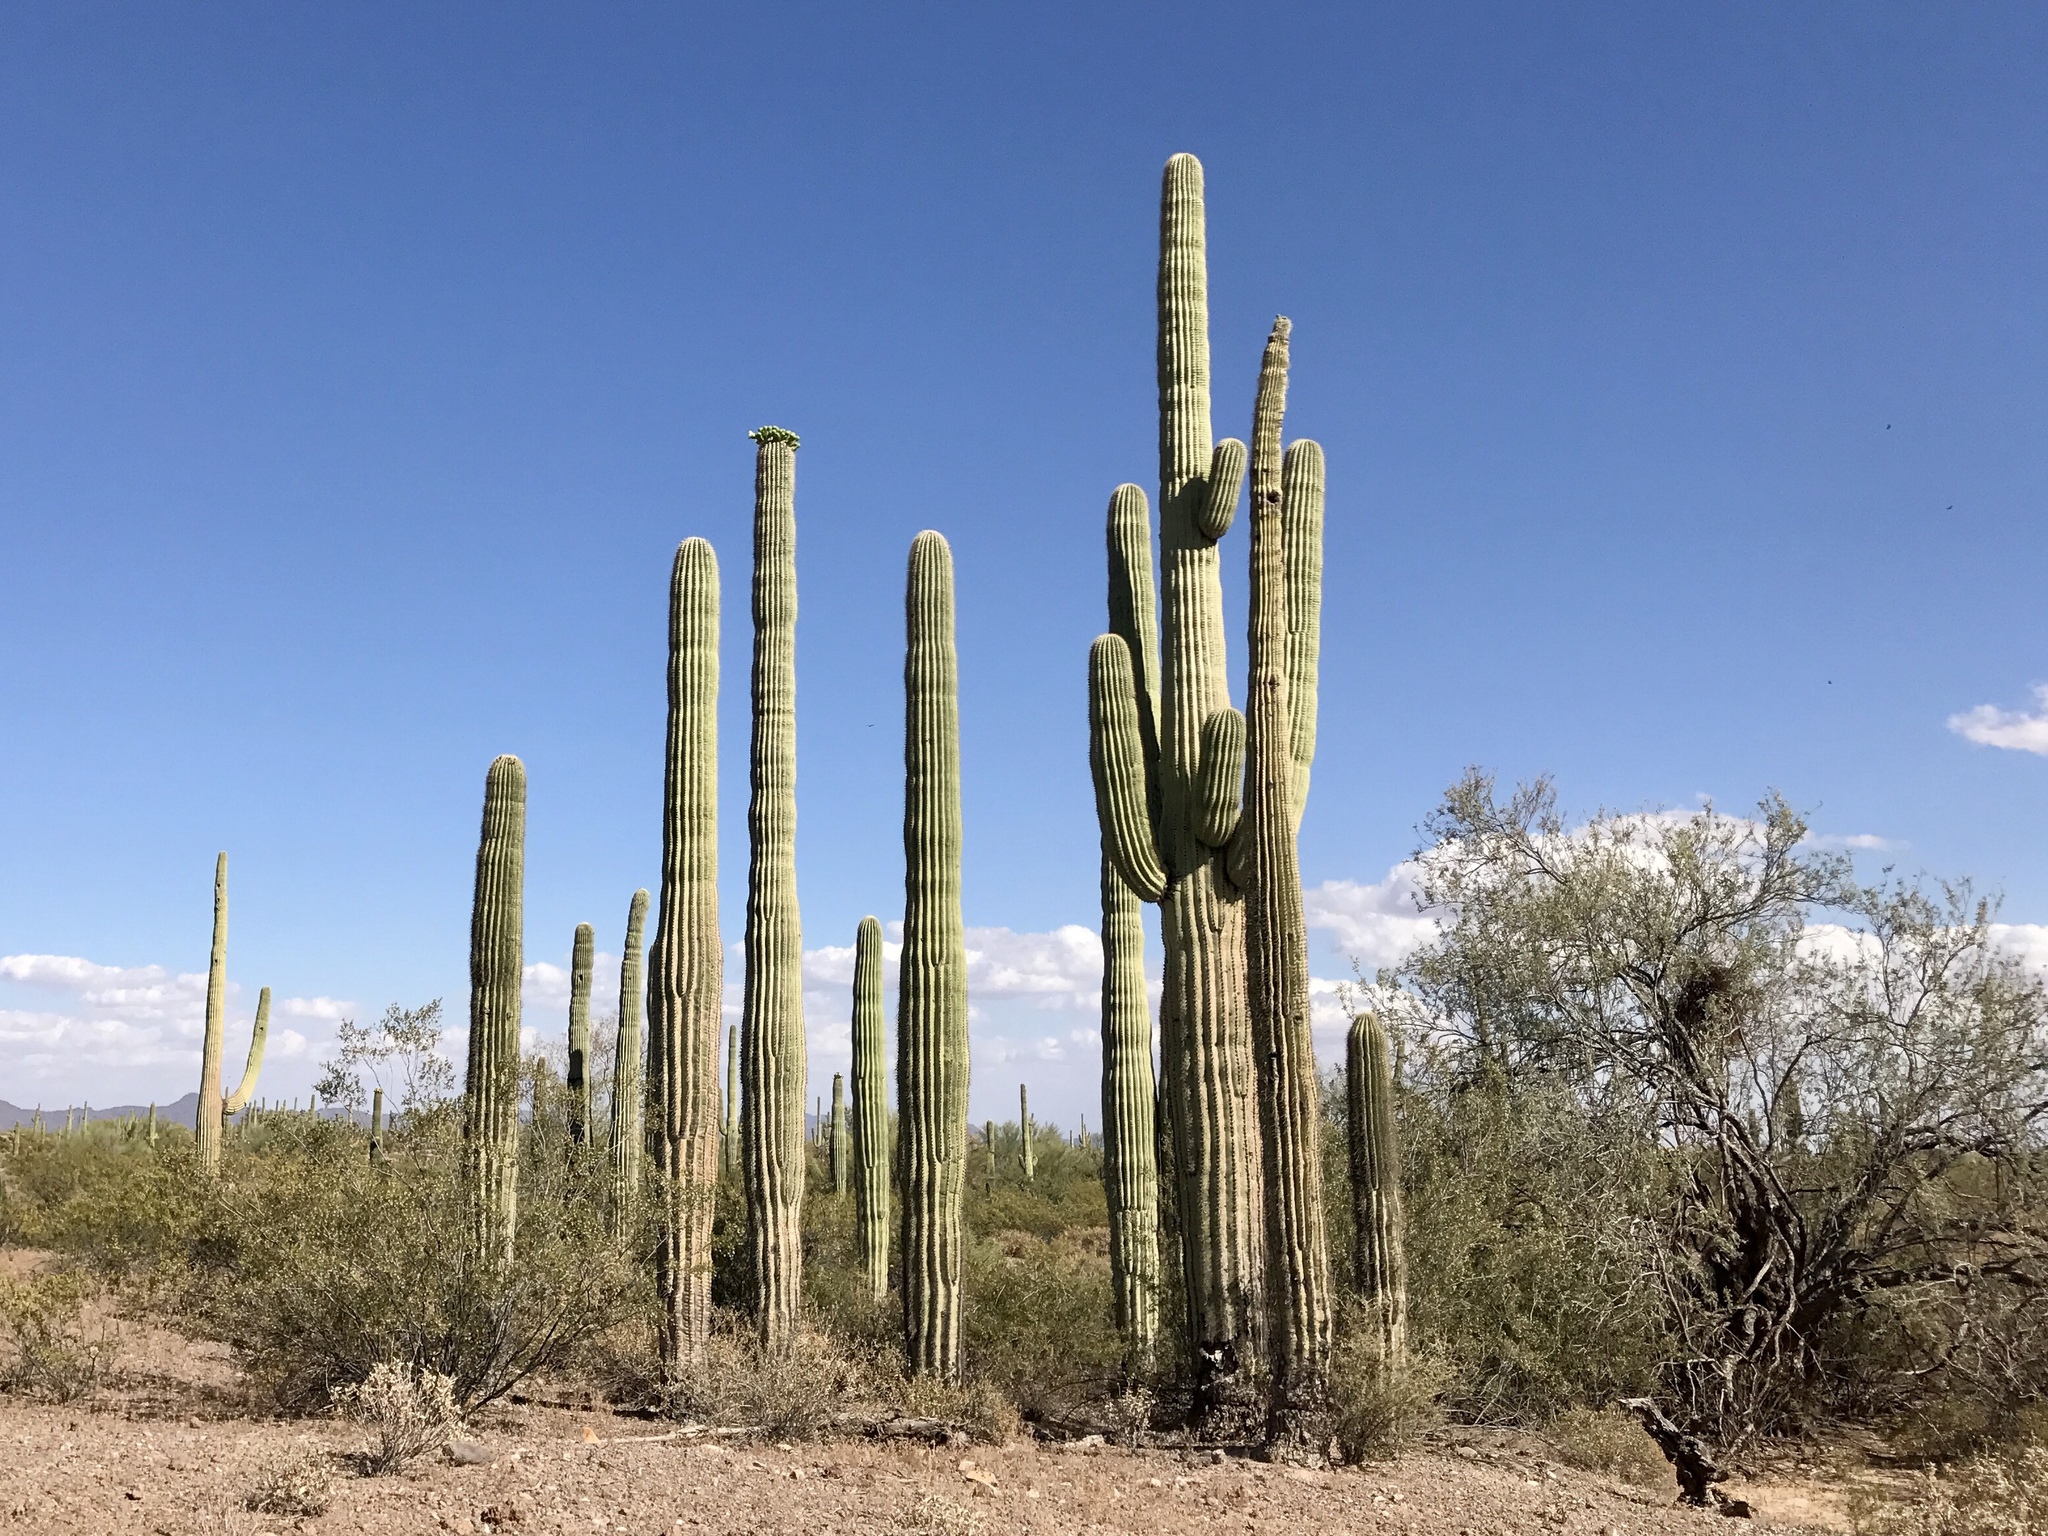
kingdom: Plantae
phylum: Tracheophyta
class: Magnoliopsida
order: Caryophyllales
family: Cactaceae
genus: Carnegiea
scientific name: Carnegiea gigantea
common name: Saguaro
